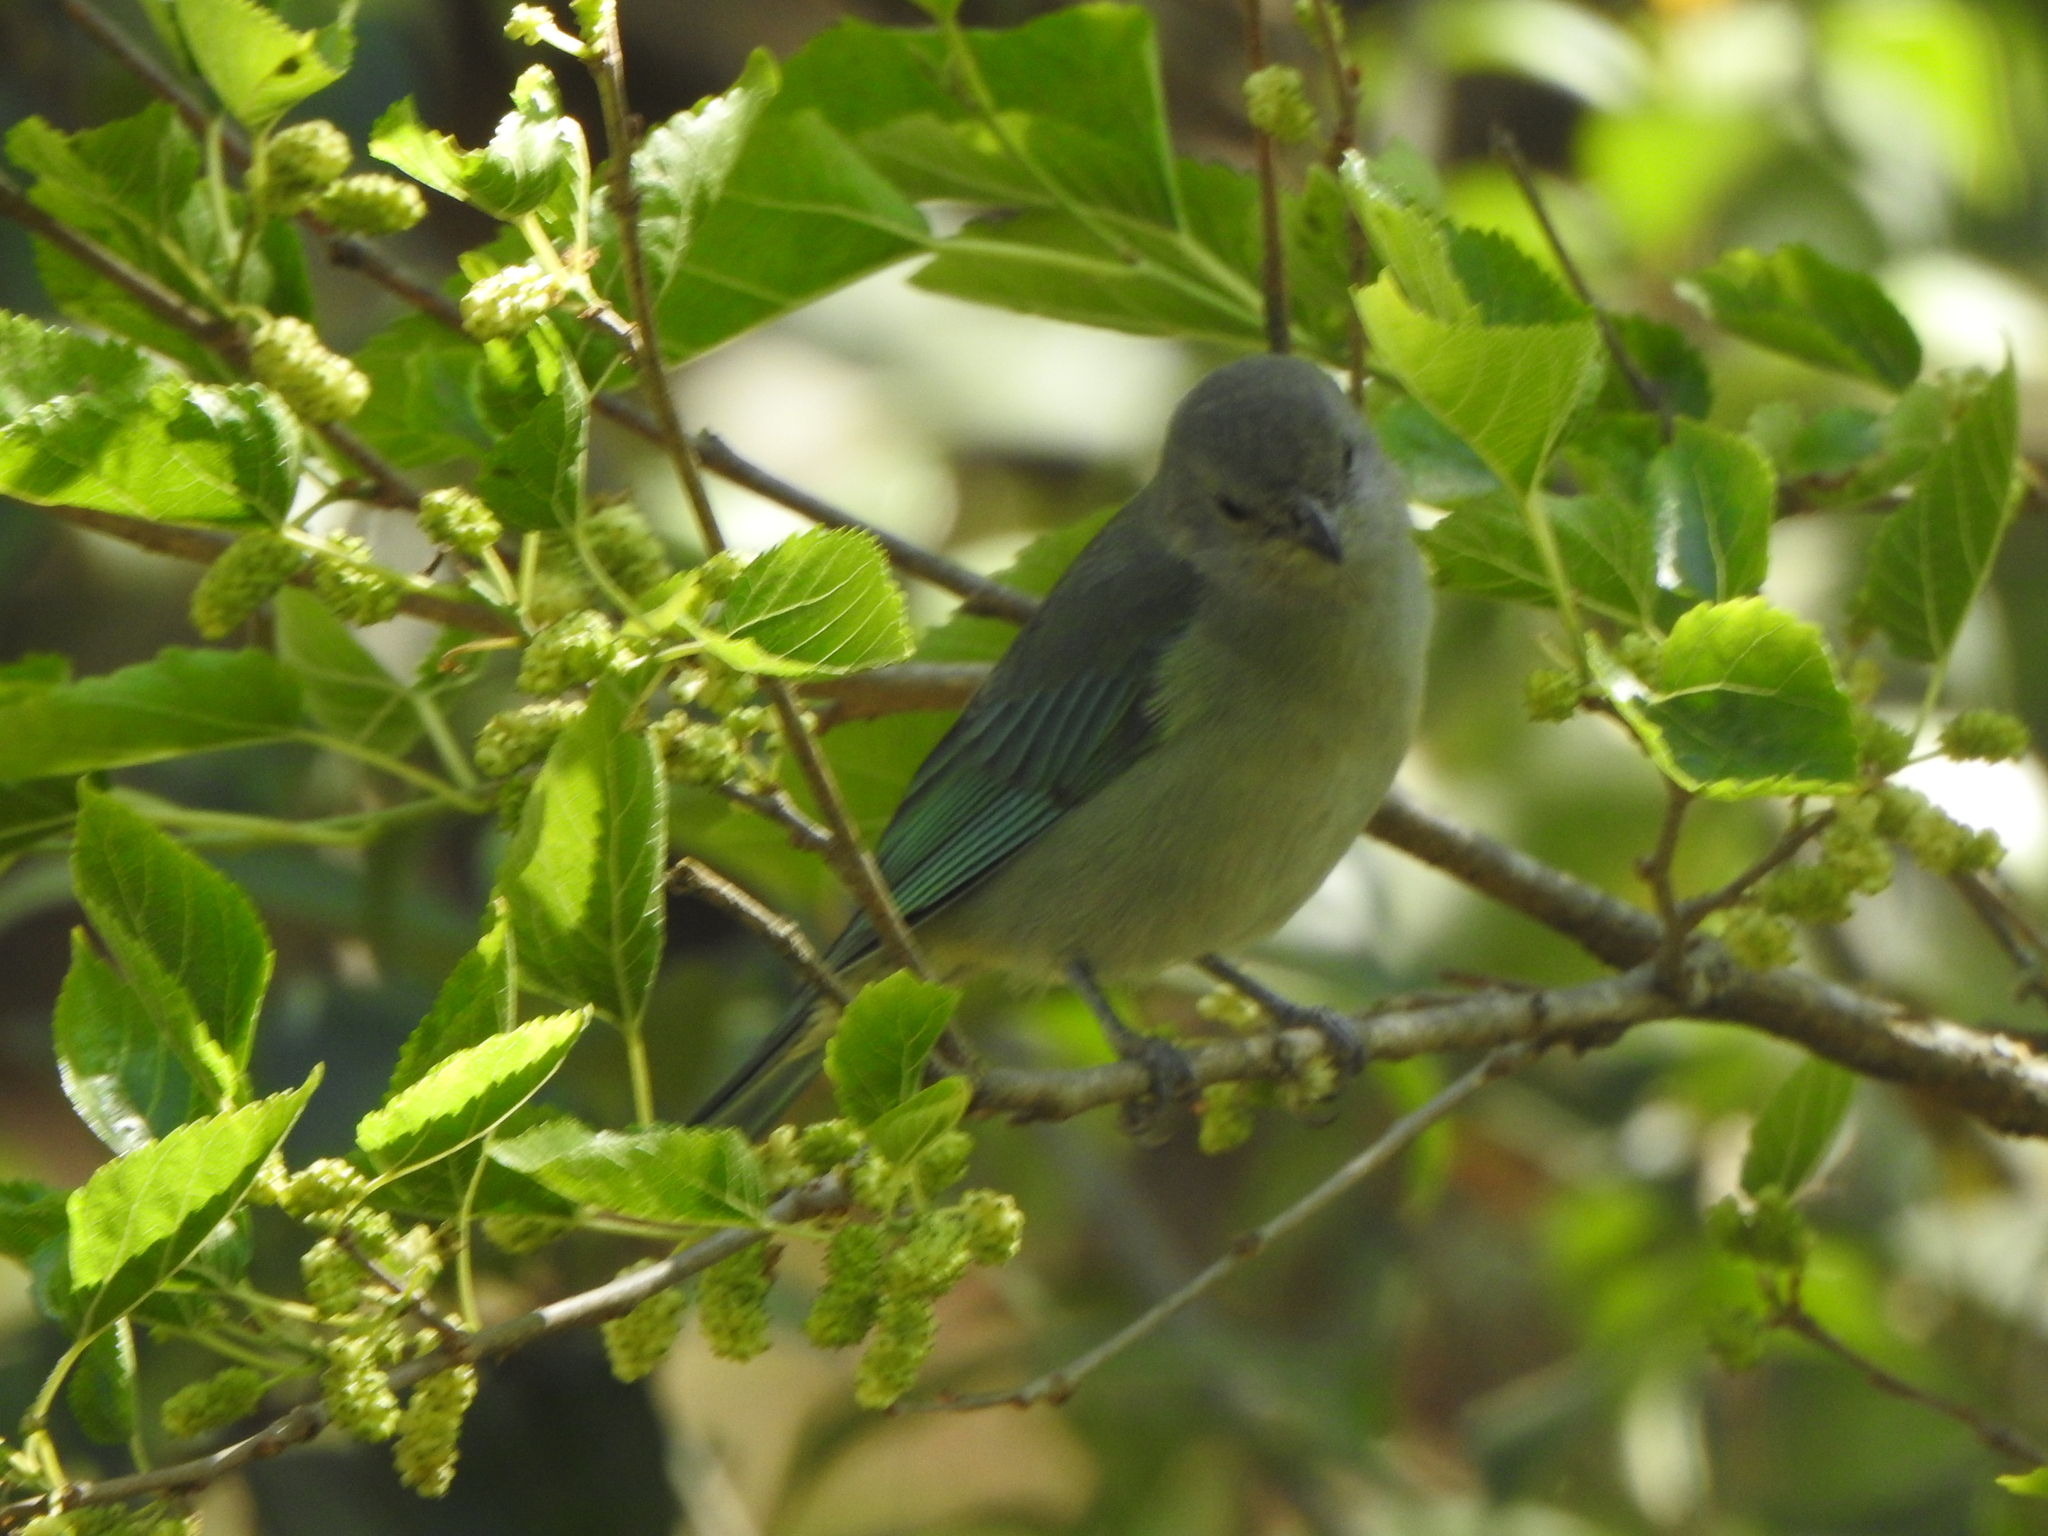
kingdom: Animalia
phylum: Chordata
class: Aves
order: Passeriformes
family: Thraupidae
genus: Thraupis
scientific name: Thraupis sayaca
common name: Sayaca tanager
